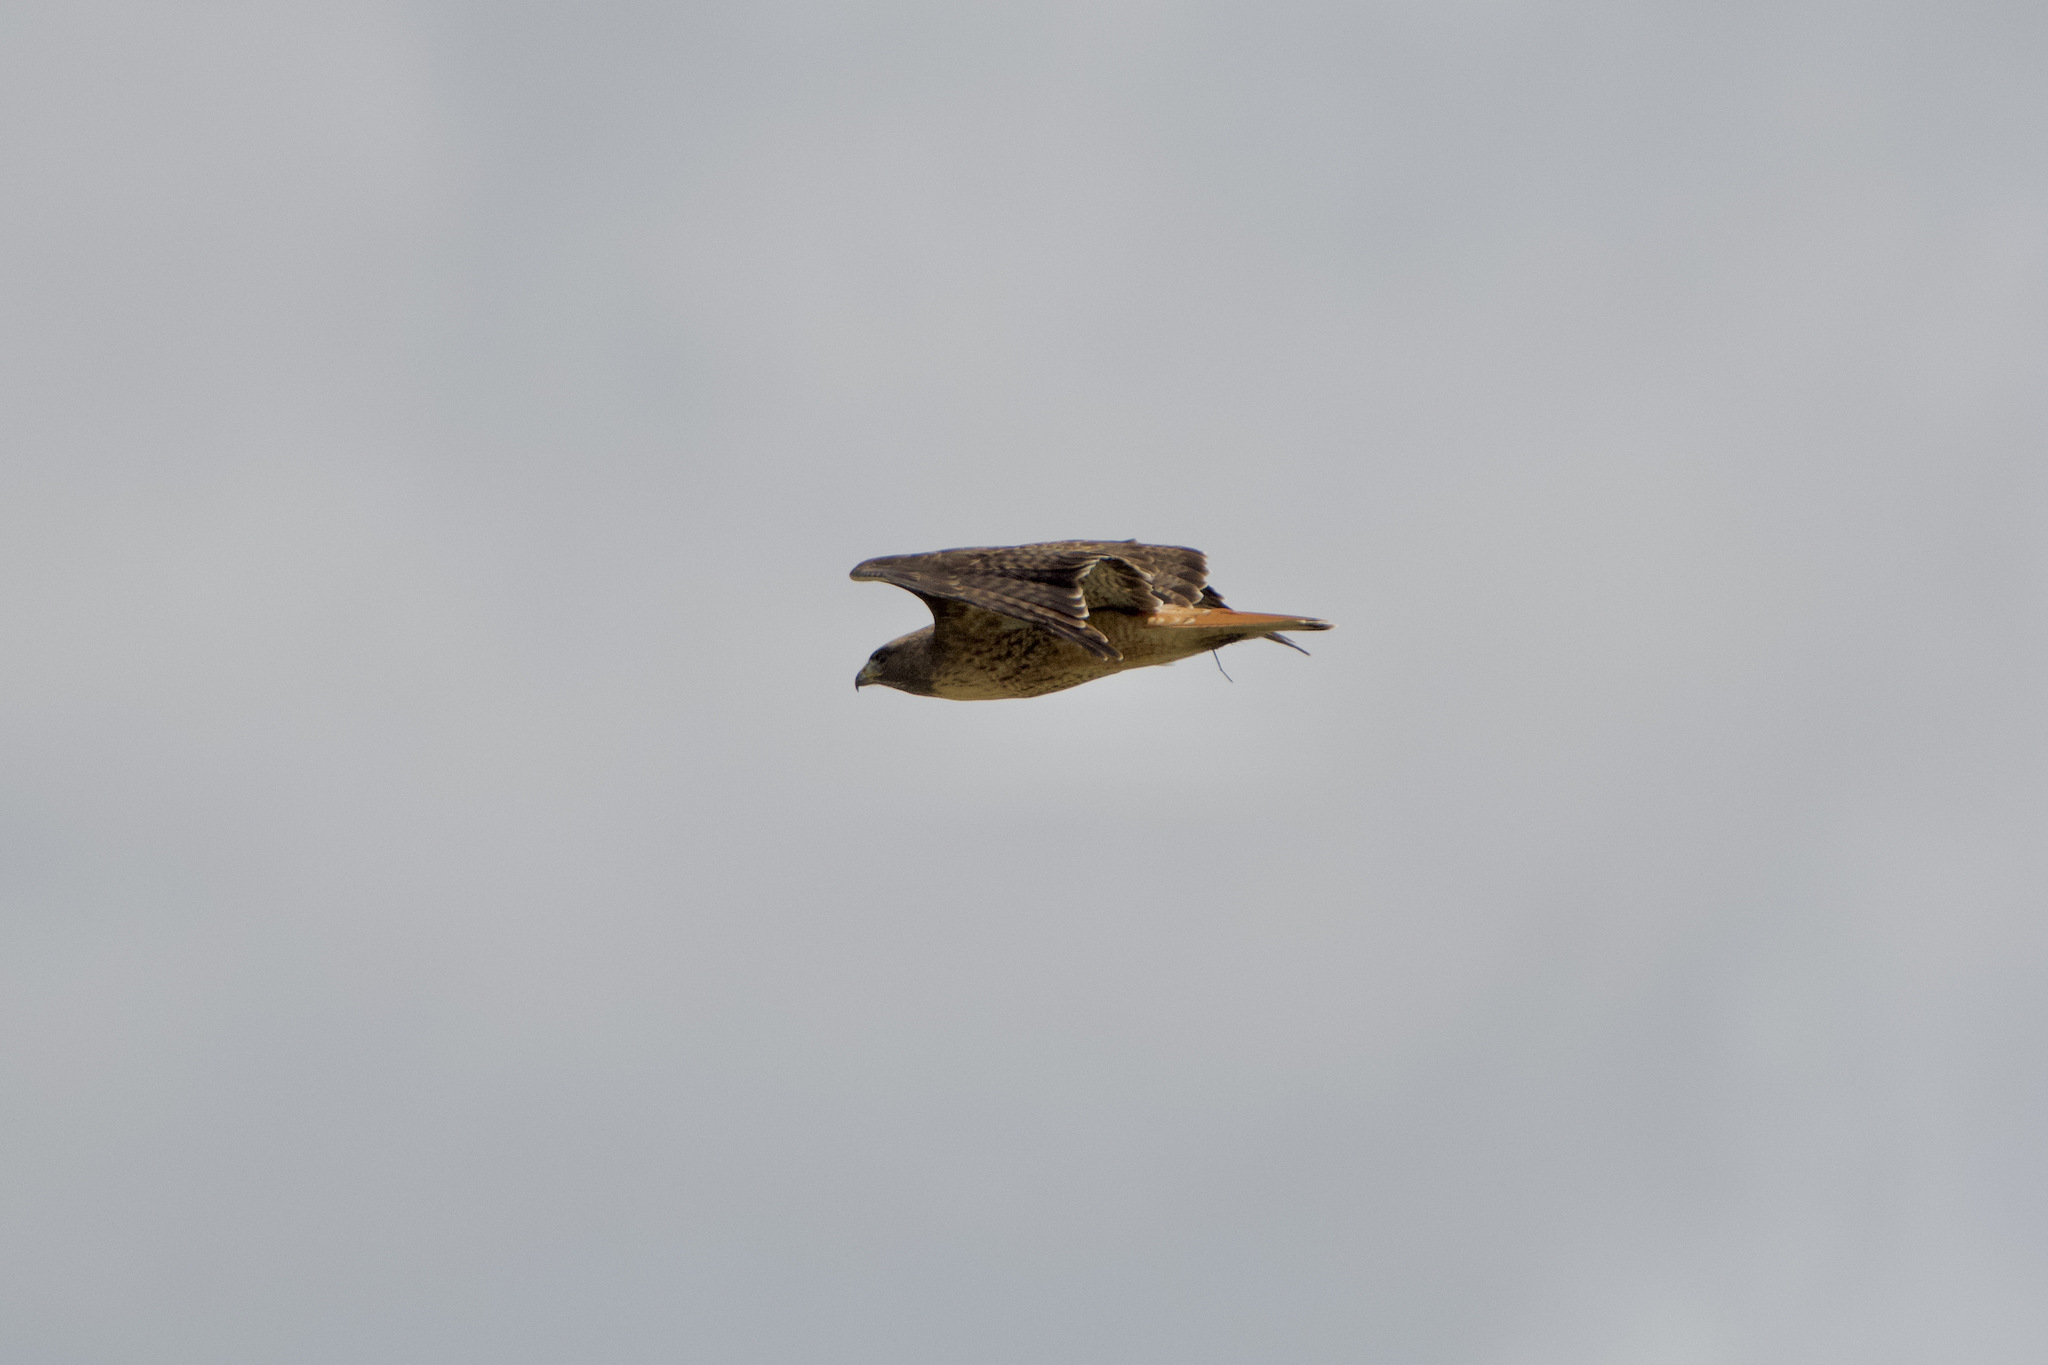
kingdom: Animalia
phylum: Chordata
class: Aves
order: Accipitriformes
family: Accipitridae
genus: Buteo
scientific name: Buteo jamaicensis
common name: Red-tailed hawk
